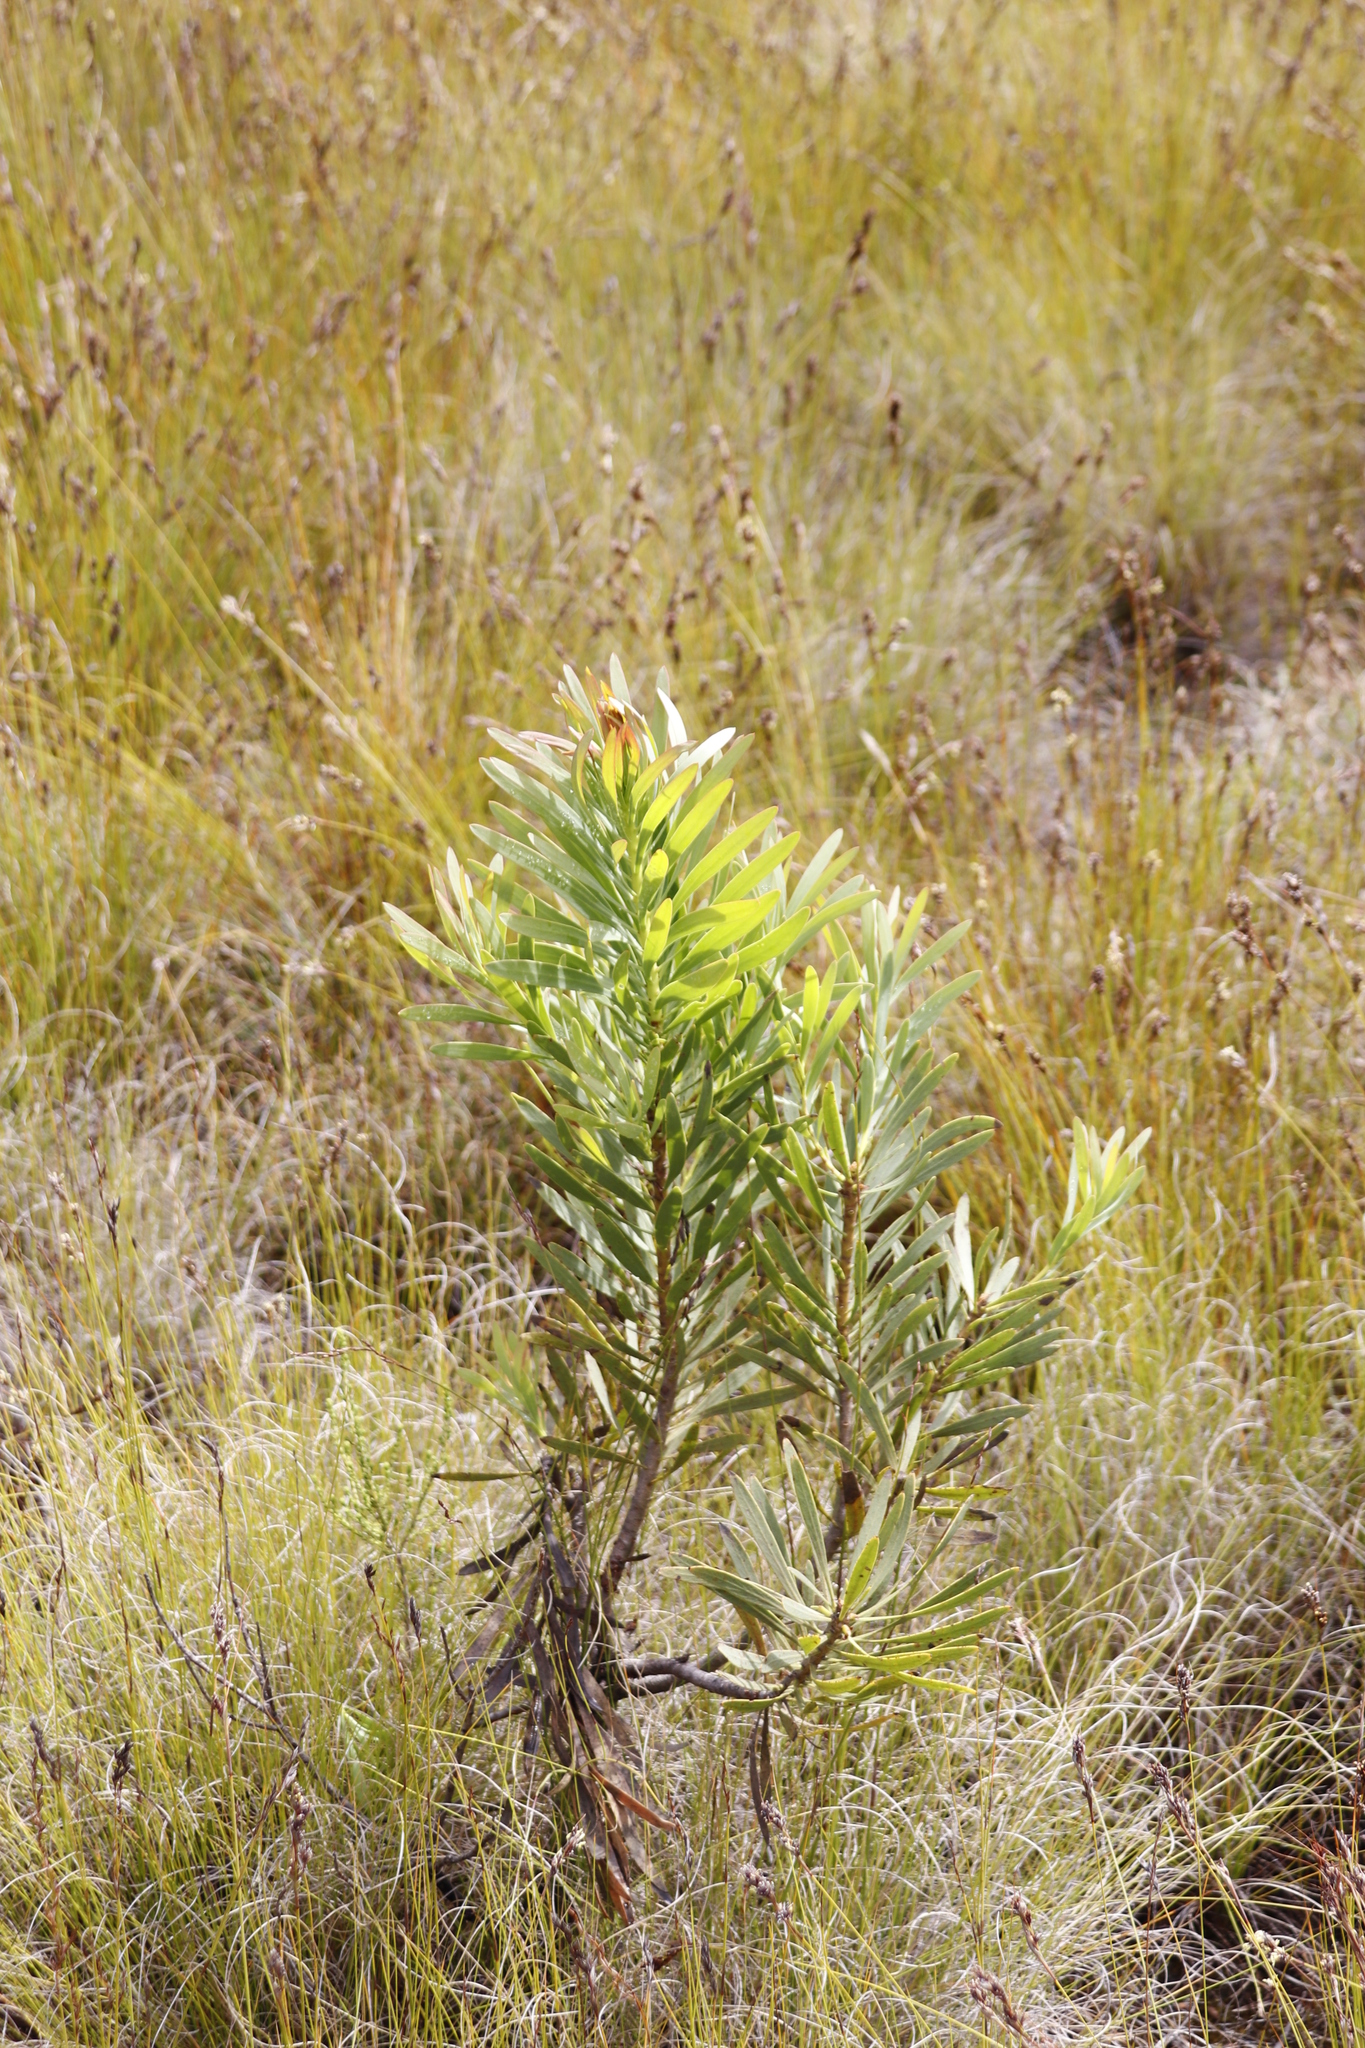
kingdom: Plantae
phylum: Tracheophyta
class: Magnoliopsida
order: Proteales
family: Proteaceae
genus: Protea
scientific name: Protea repens
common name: Sugarbush
